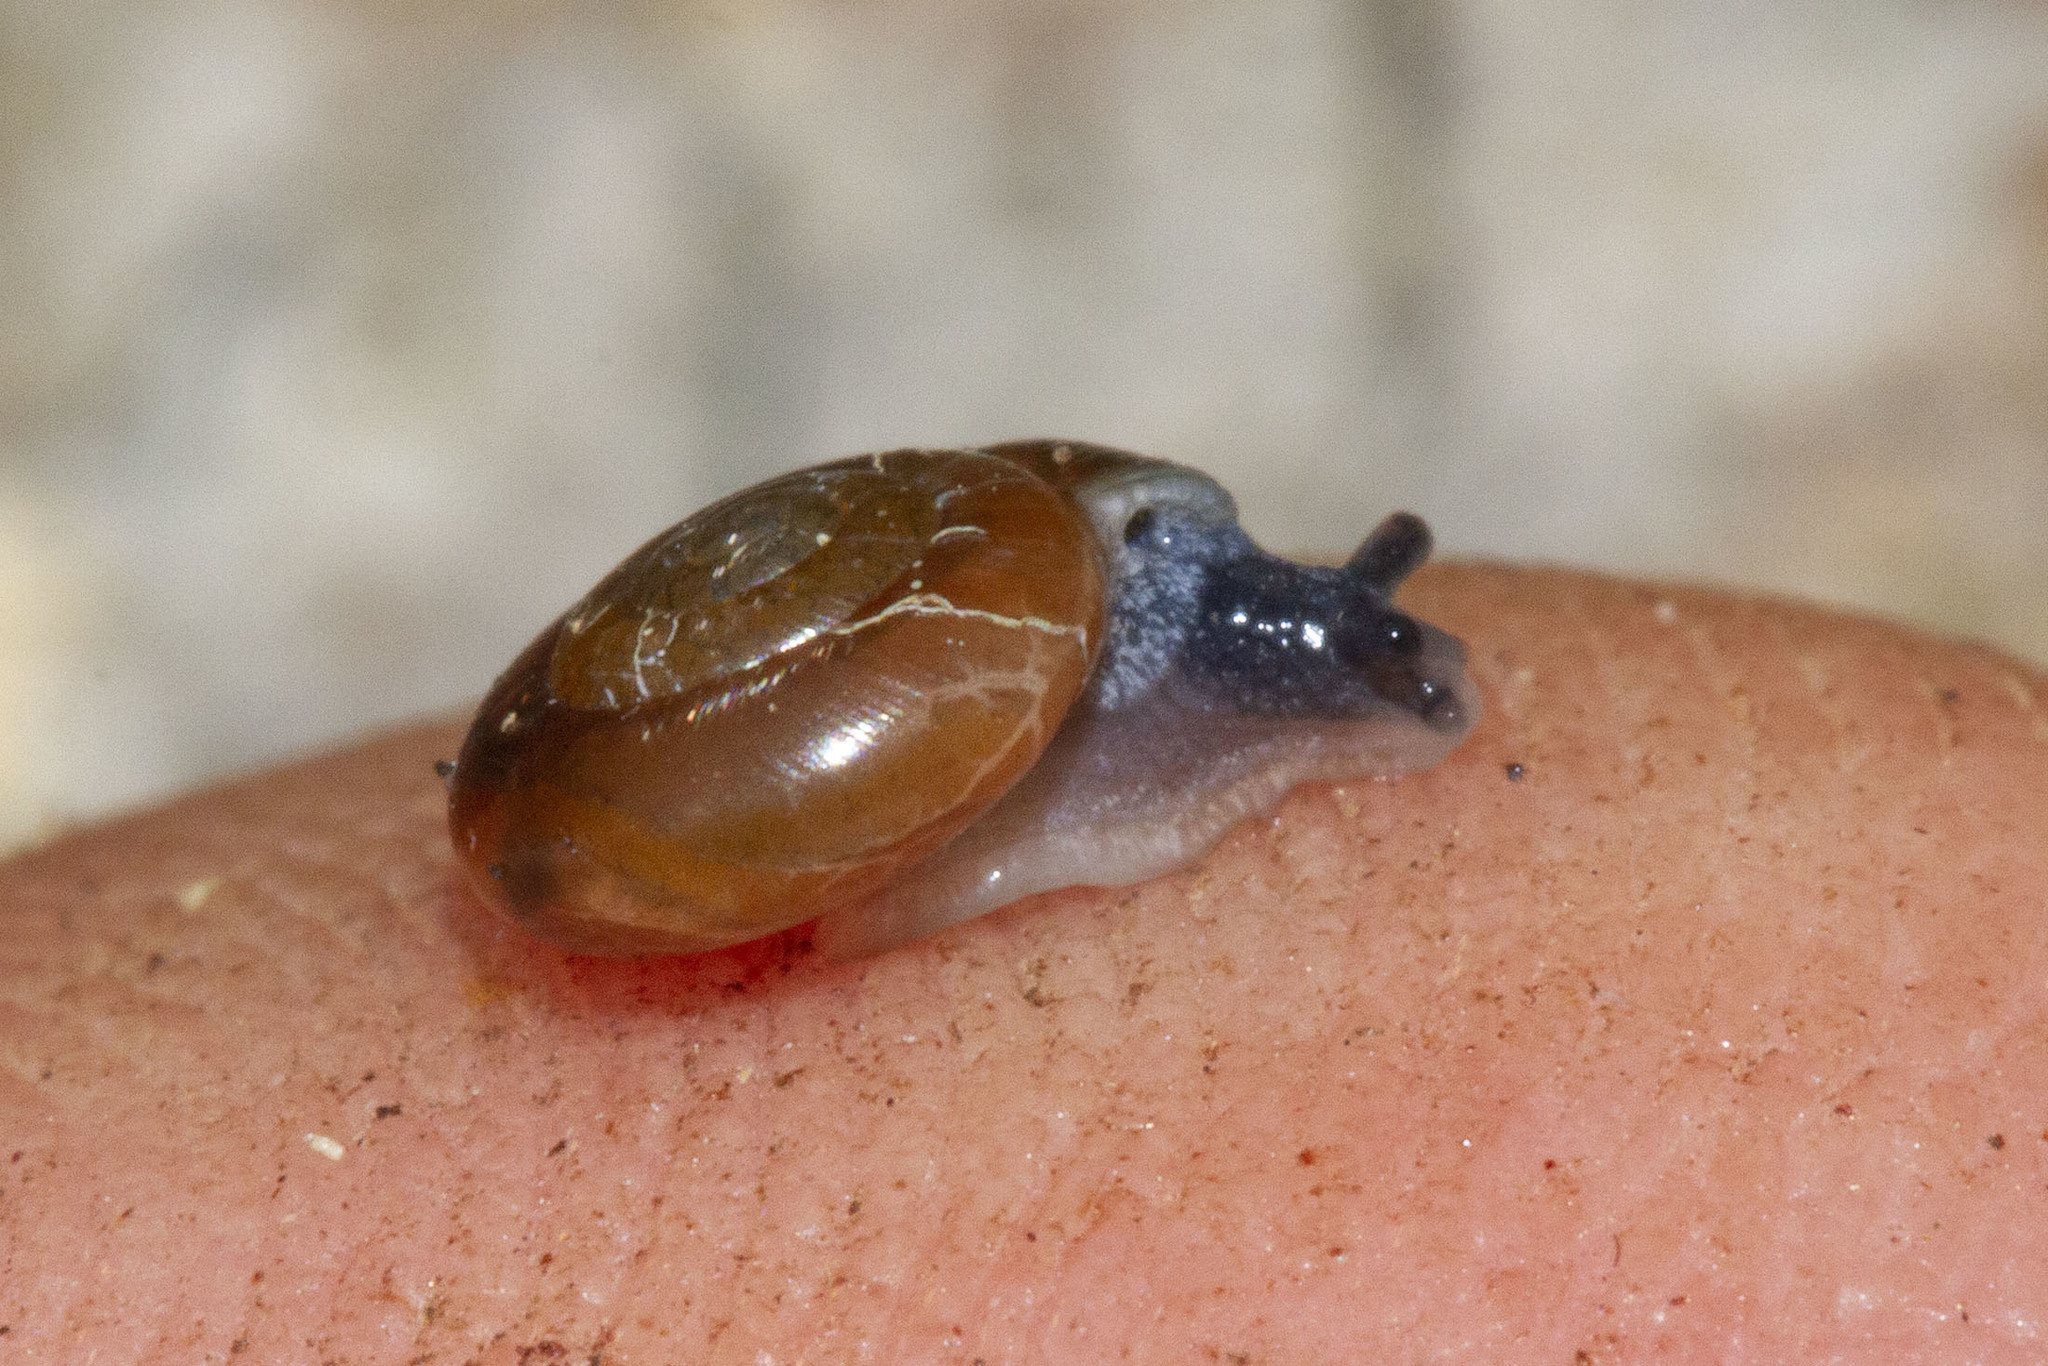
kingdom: Animalia
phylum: Mollusca
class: Gastropoda
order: Stylommatophora
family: Gastrodontidae
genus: Zonitoides
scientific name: Zonitoides arboreus
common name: Quick gloss
